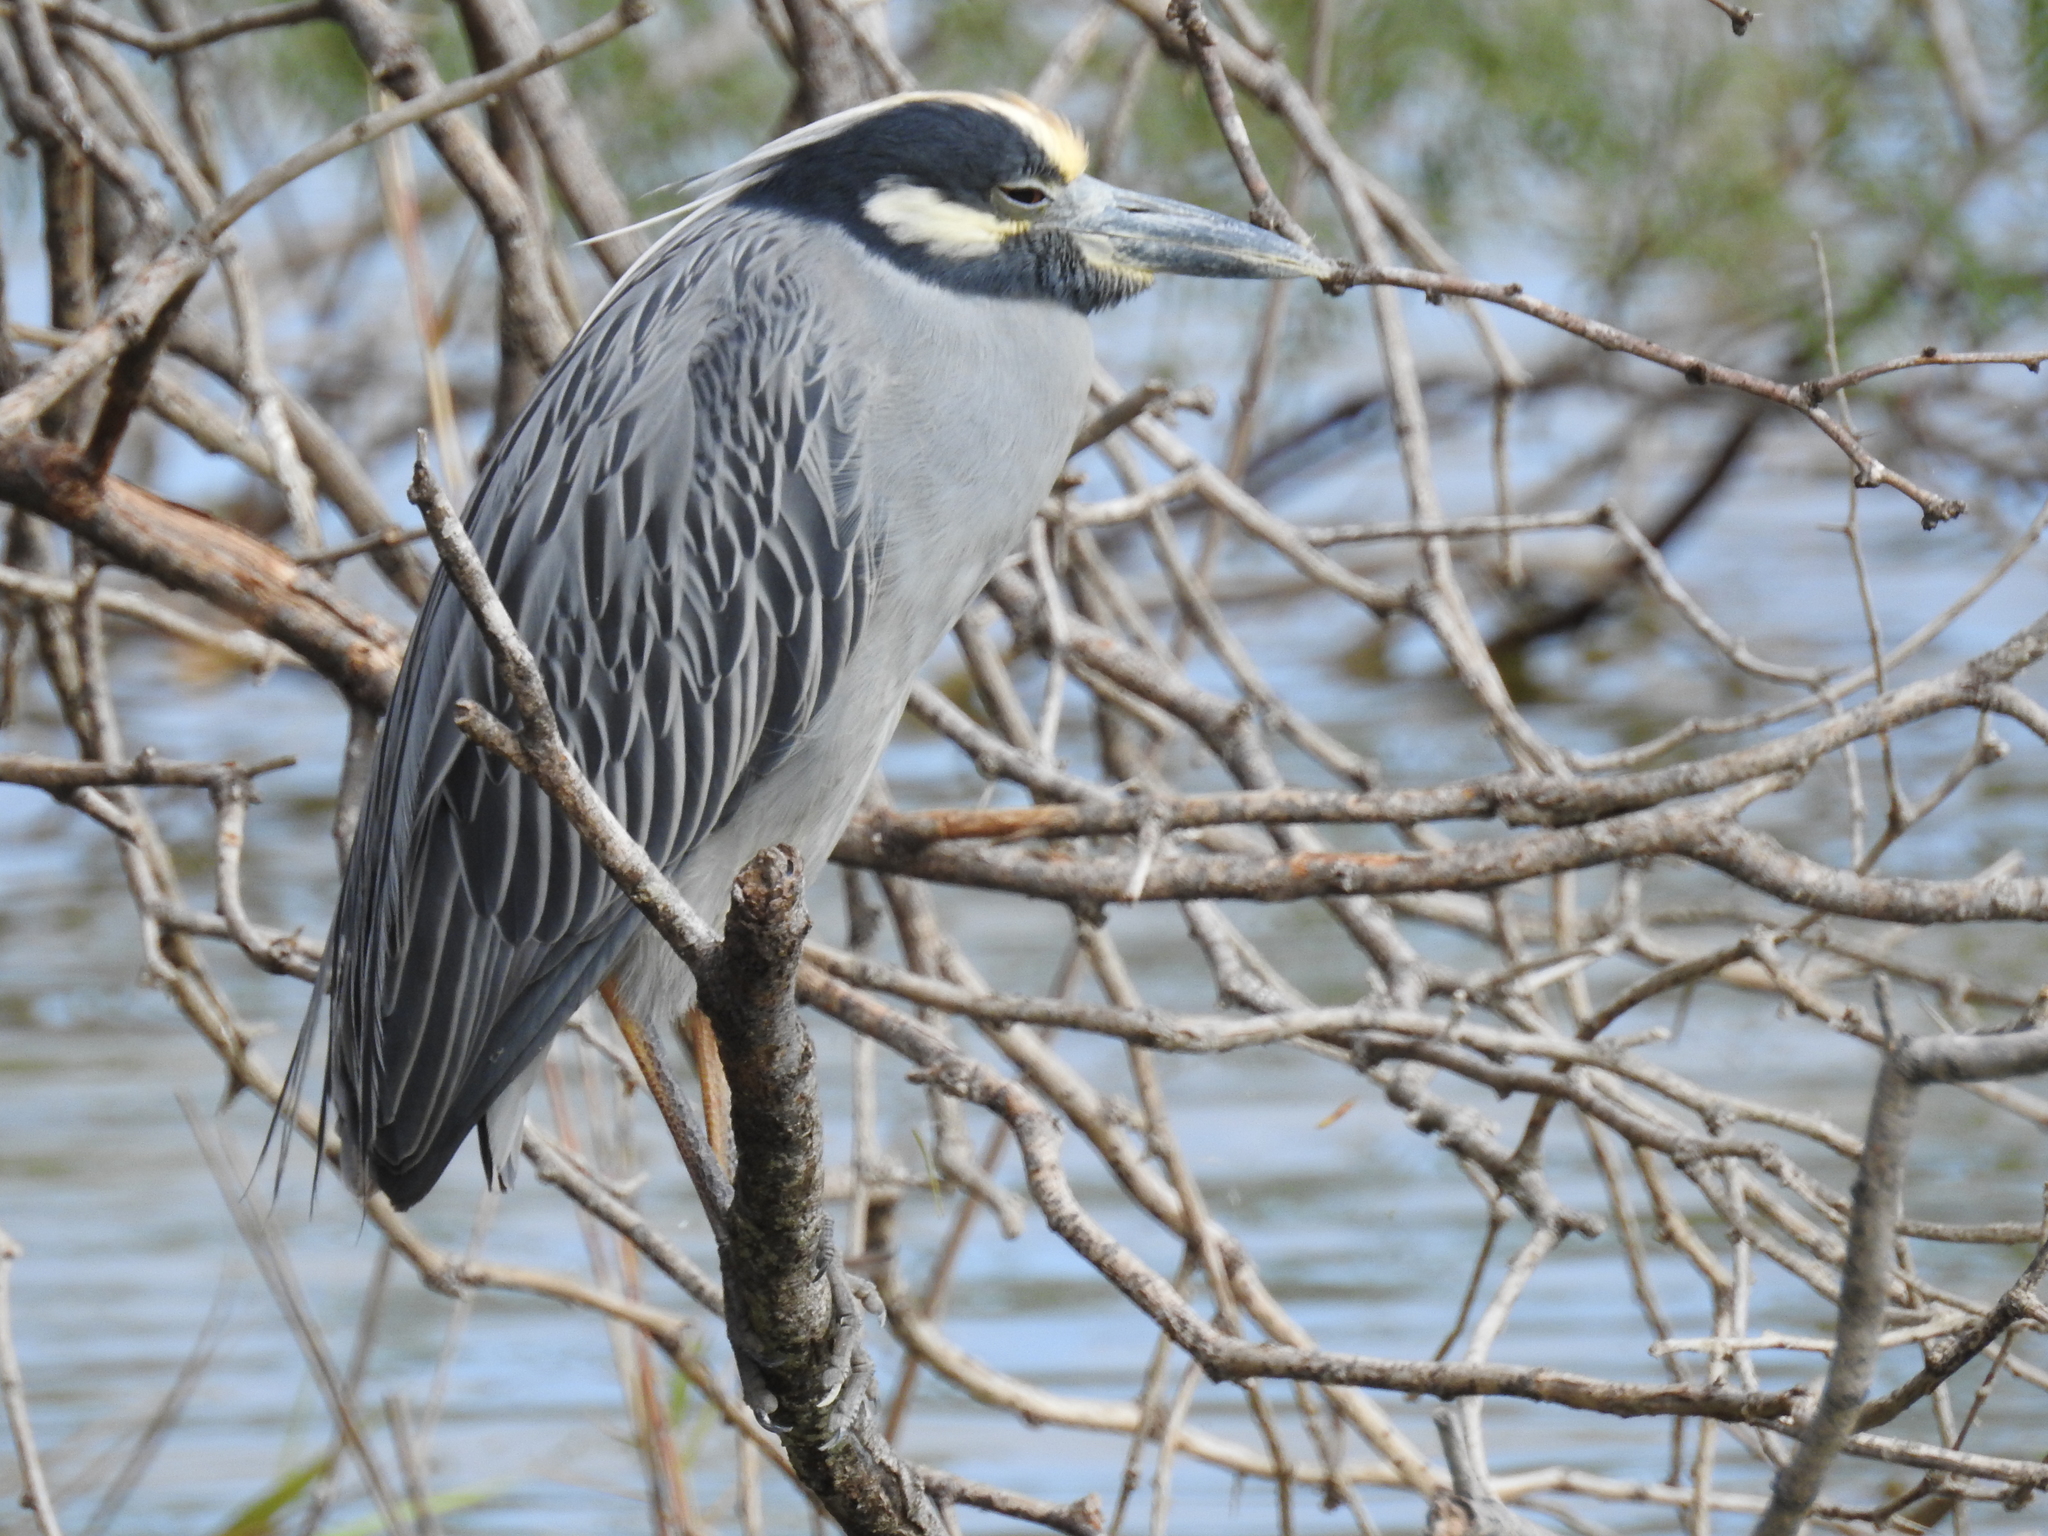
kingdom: Animalia
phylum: Chordata
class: Aves
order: Pelecaniformes
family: Ardeidae
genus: Nyctanassa
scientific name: Nyctanassa violacea
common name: Yellow-crowned night heron
